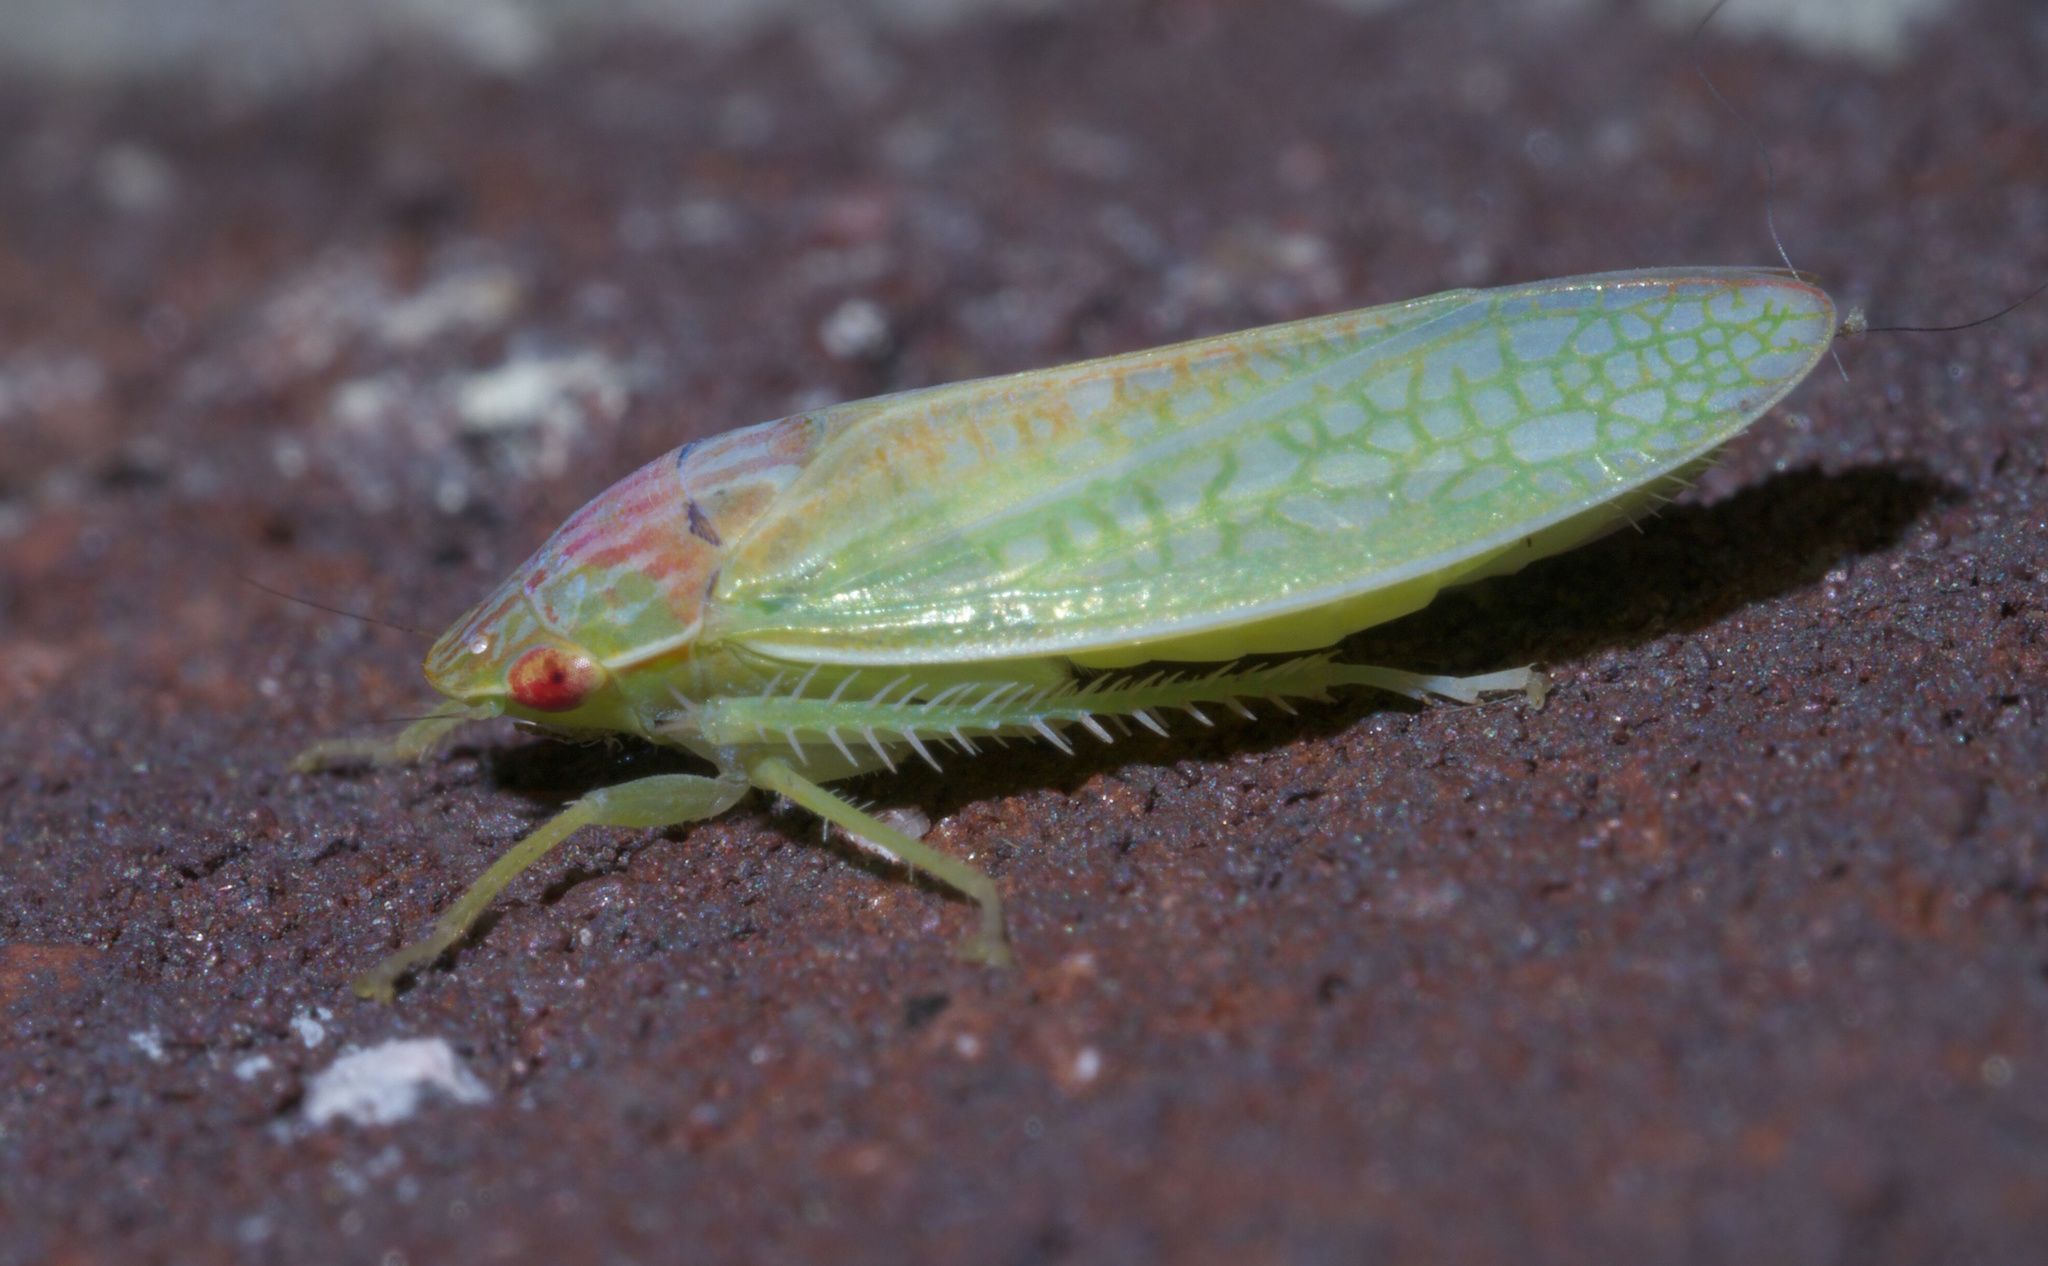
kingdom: Animalia
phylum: Arthropoda
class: Insecta
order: Hemiptera
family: Cicadellidae
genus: Gyponana
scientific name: Gyponana octolineata
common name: Eight-lined leafhopper
